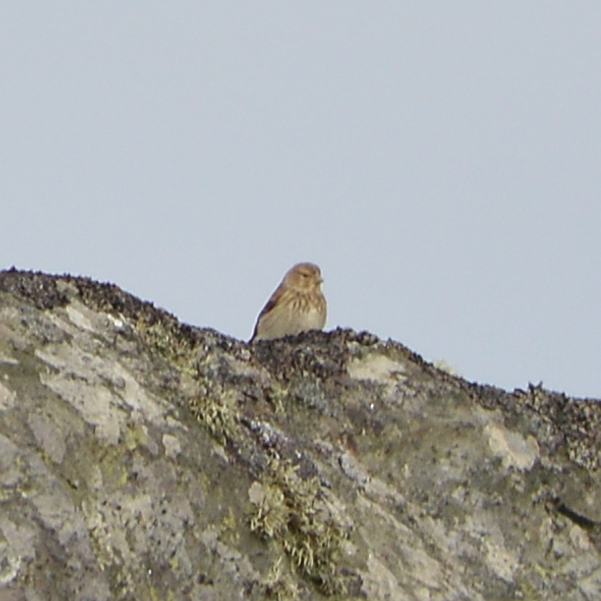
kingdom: Animalia
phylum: Chordata
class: Aves
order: Passeriformes
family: Fringillidae
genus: Linaria
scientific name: Linaria cannabina
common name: Common linnet
